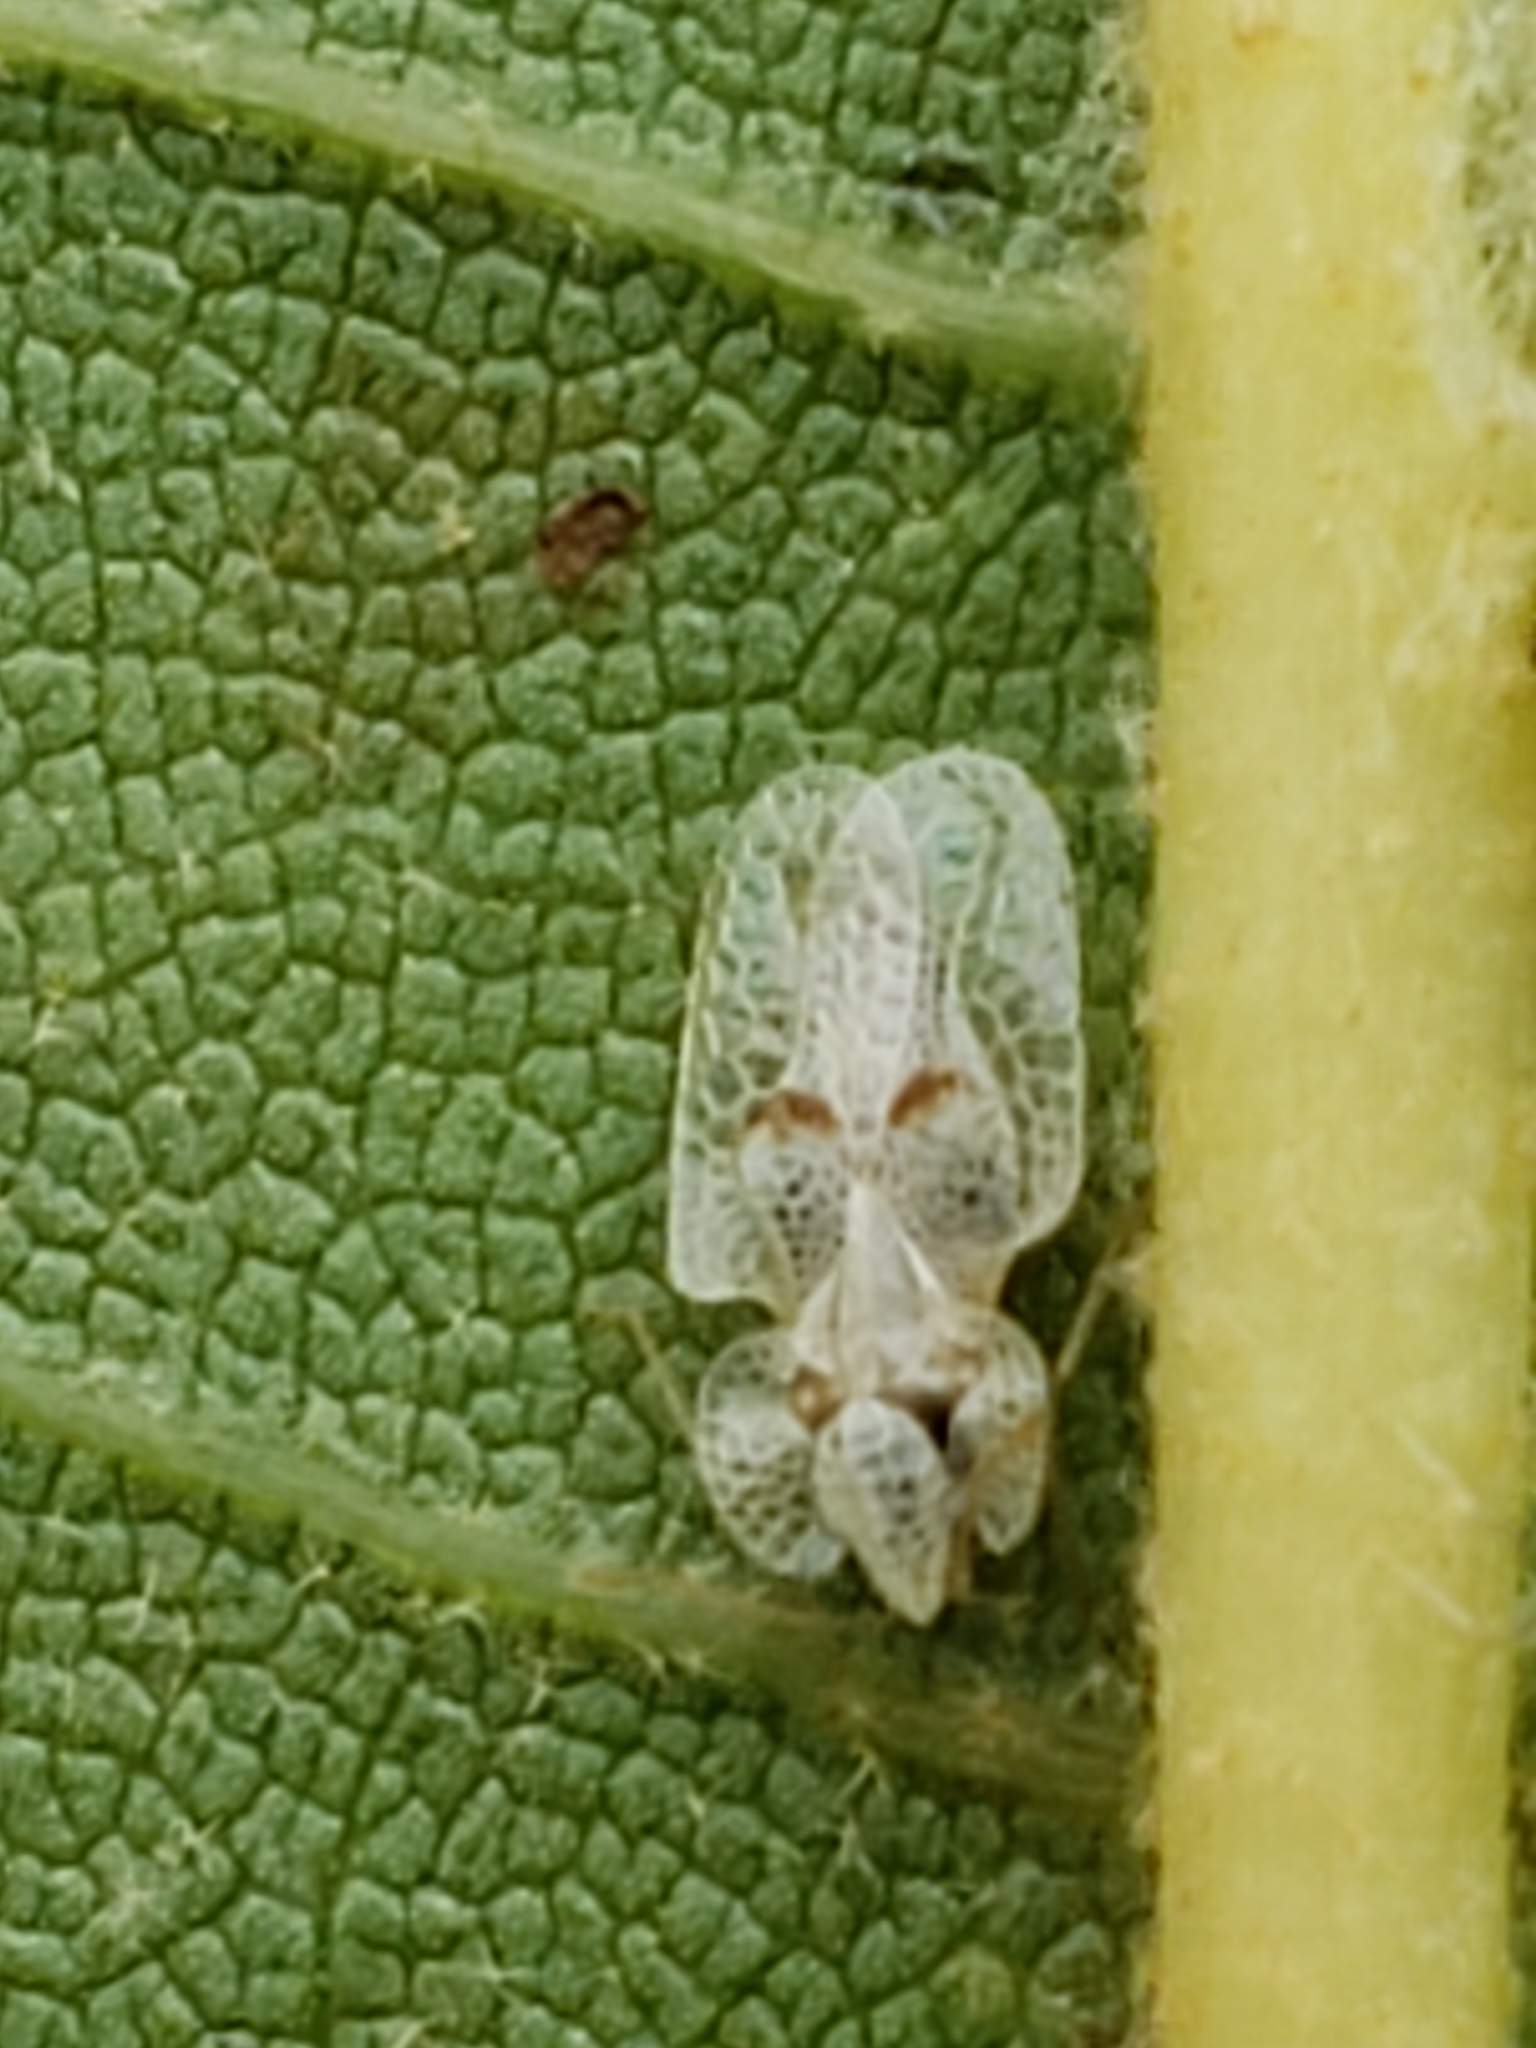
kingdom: Animalia
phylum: Arthropoda
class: Insecta
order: Hemiptera
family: Tingidae
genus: Corythucha
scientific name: Corythucha ciliata
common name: Sycamore lace bug
